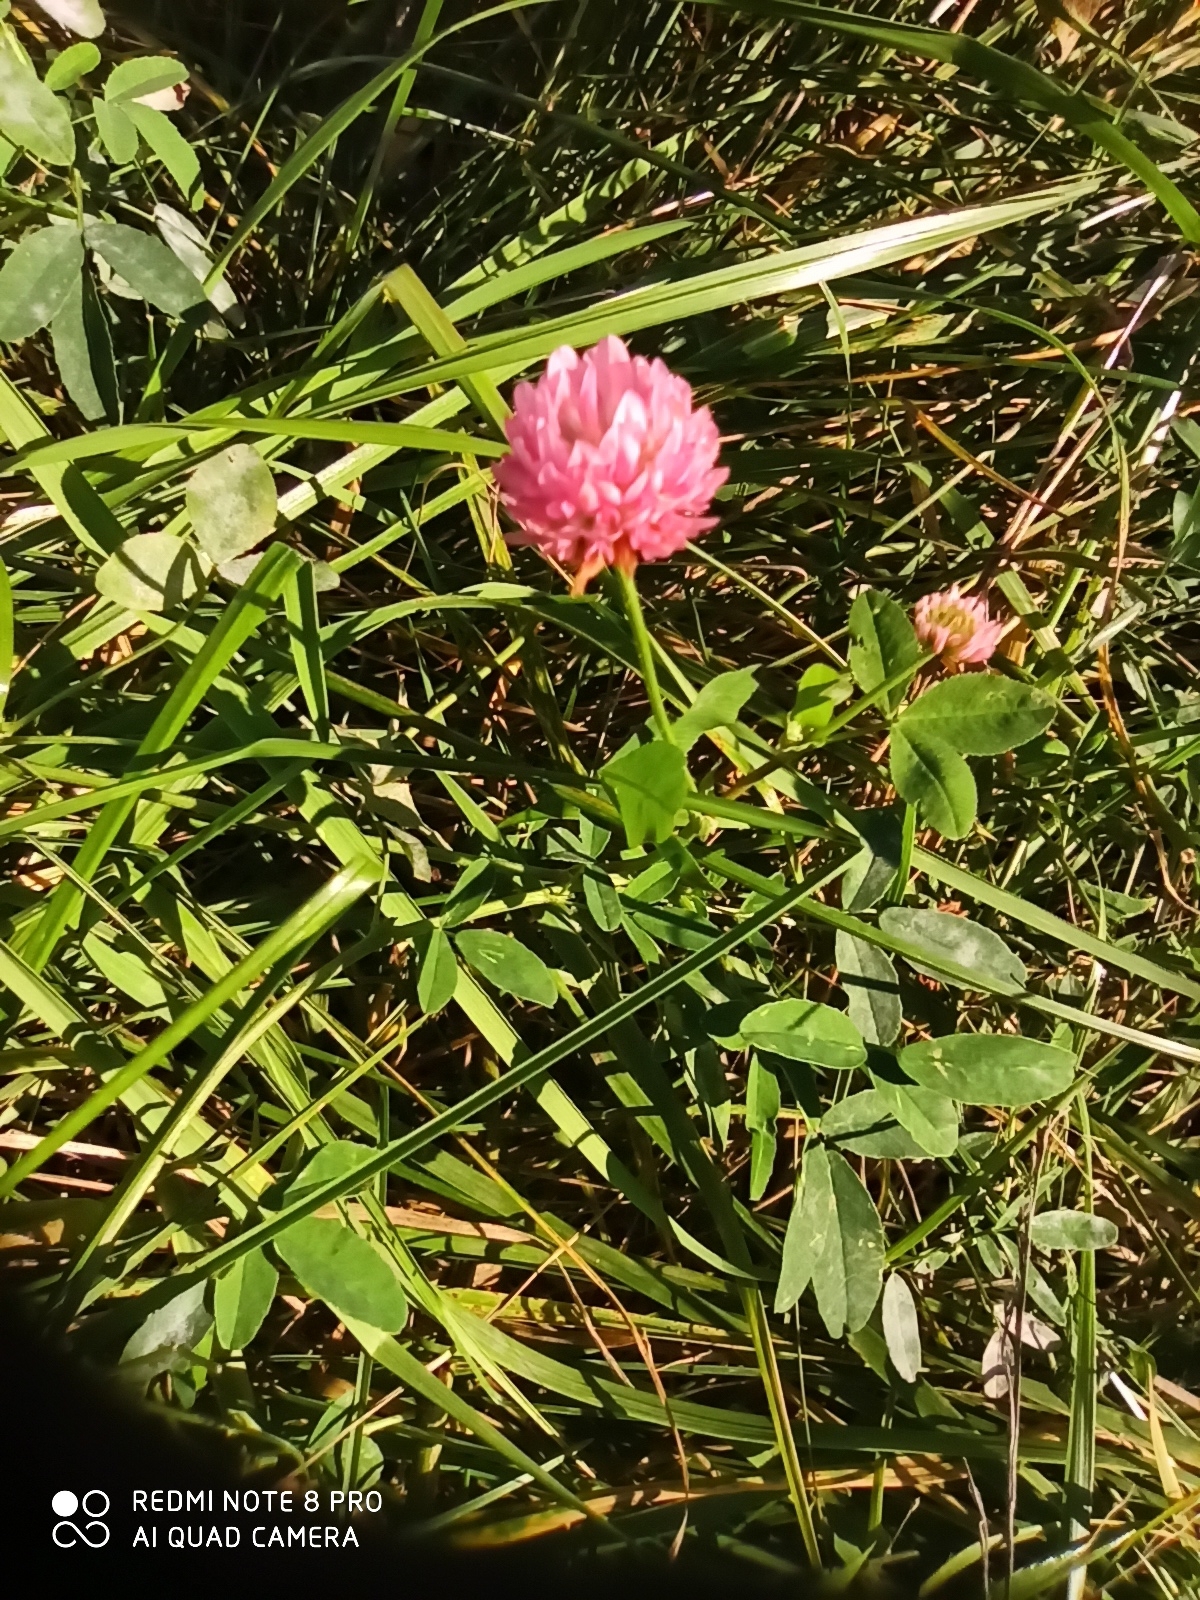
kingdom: Plantae
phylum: Tracheophyta
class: Magnoliopsida
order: Fabales
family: Fabaceae
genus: Trifolium
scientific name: Trifolium hybridum
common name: Alsike clover
